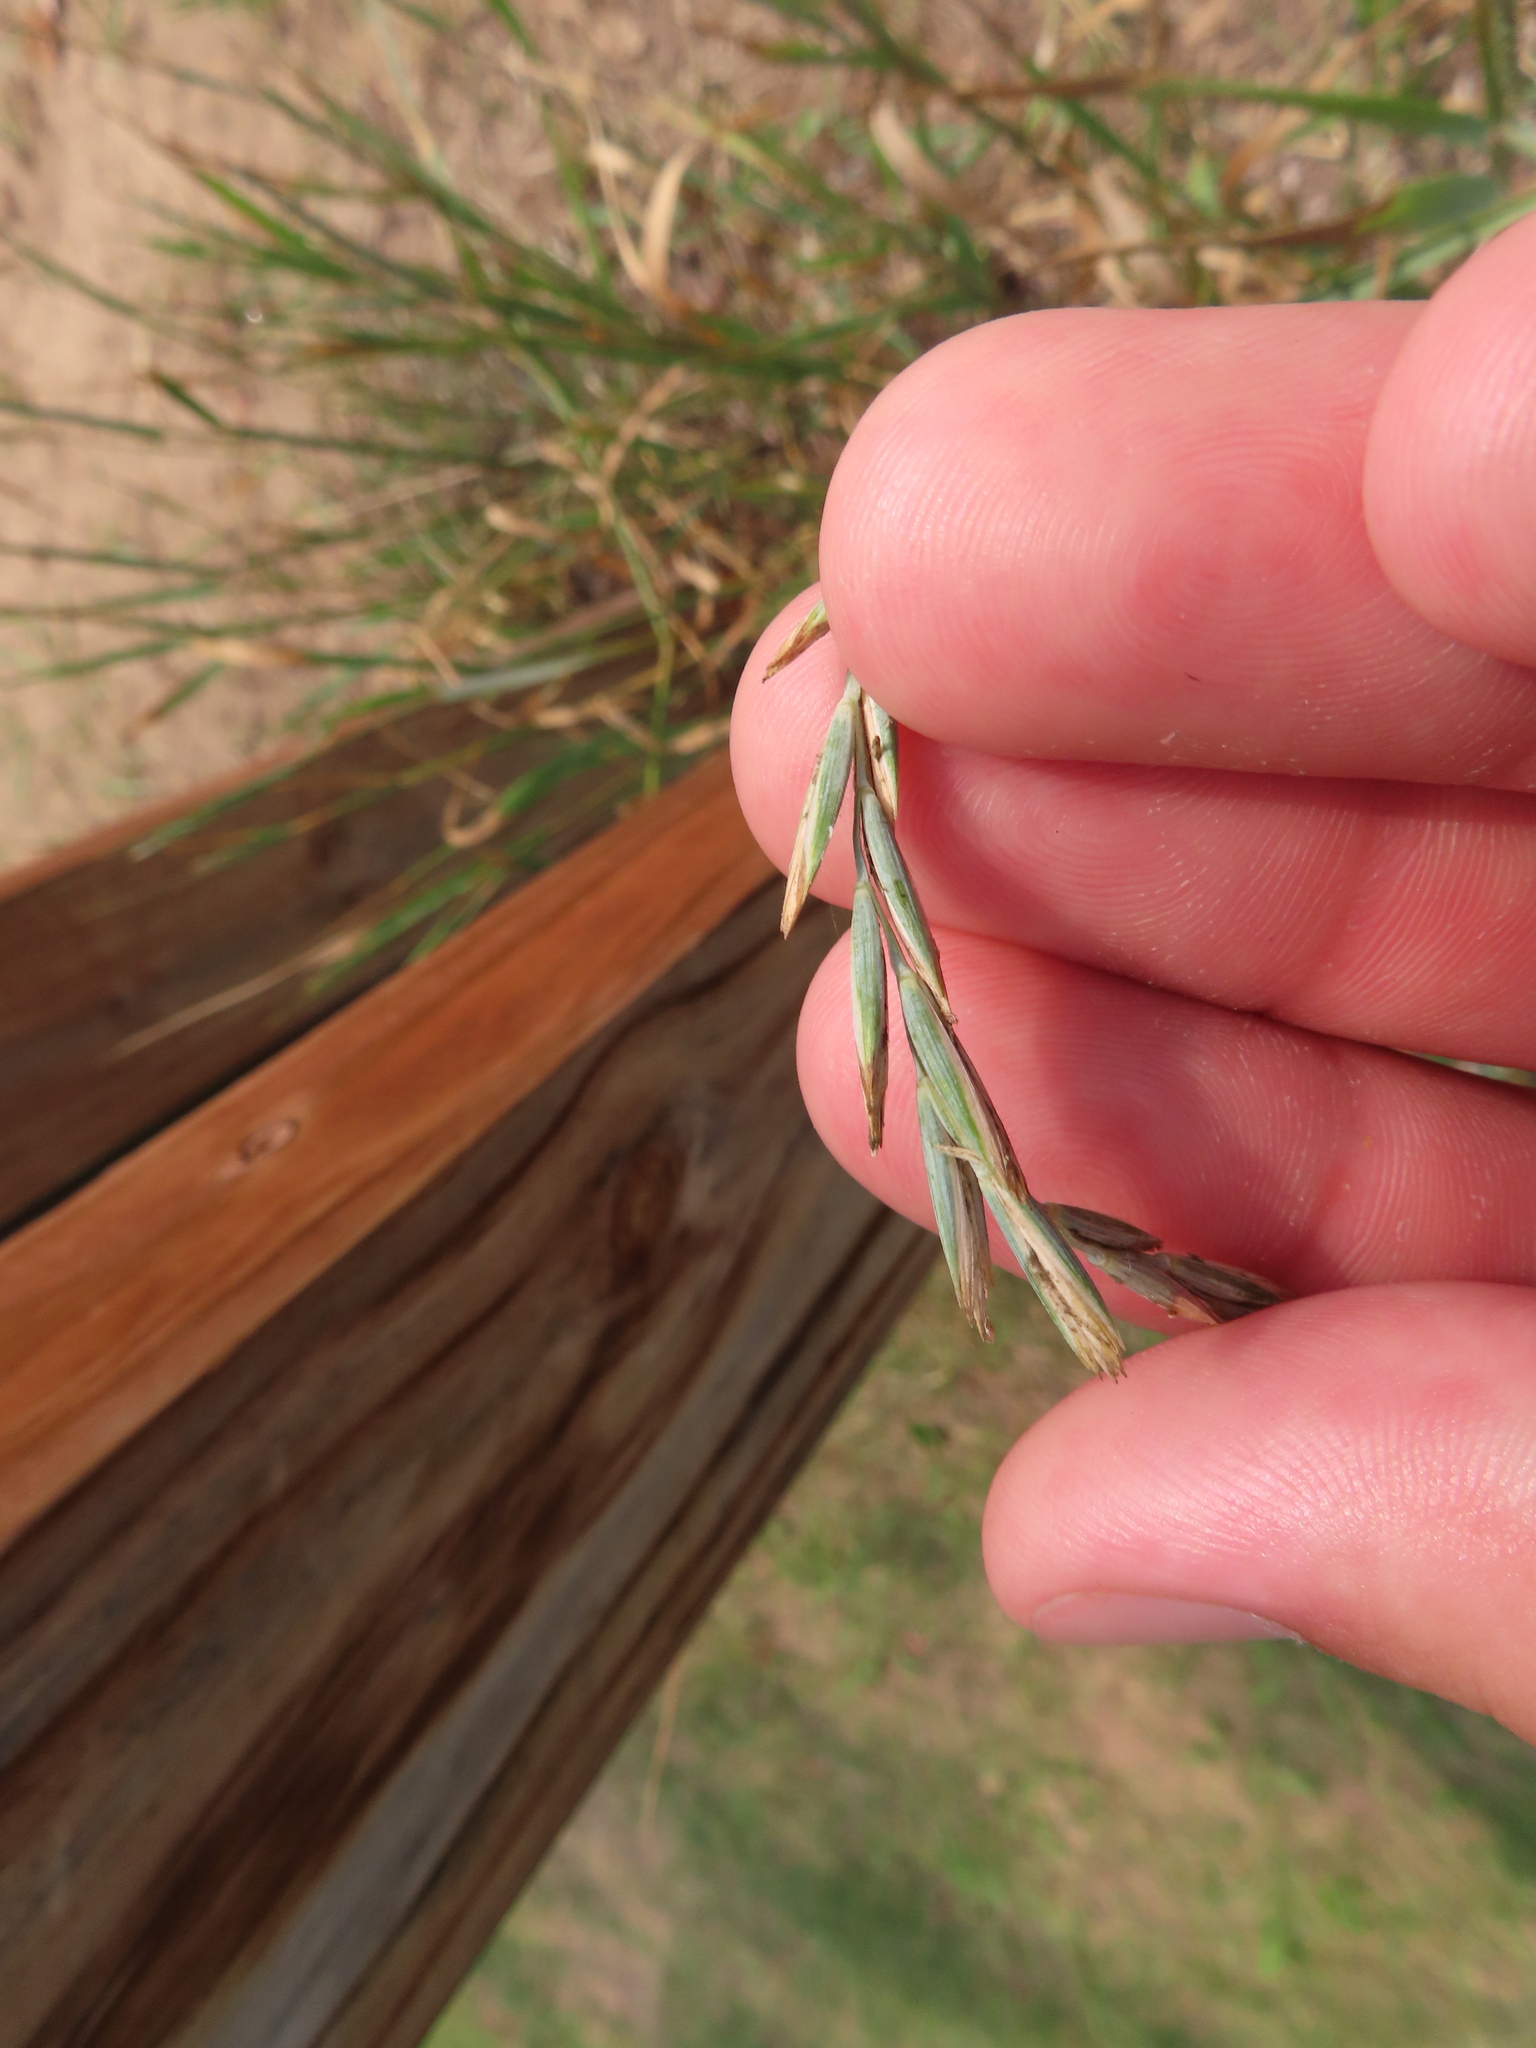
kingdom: Plantae
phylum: Tracheophyta
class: Liliopsida
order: Poales
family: Poaceae
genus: Elymus
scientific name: Elymus repens
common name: Quackgrass
